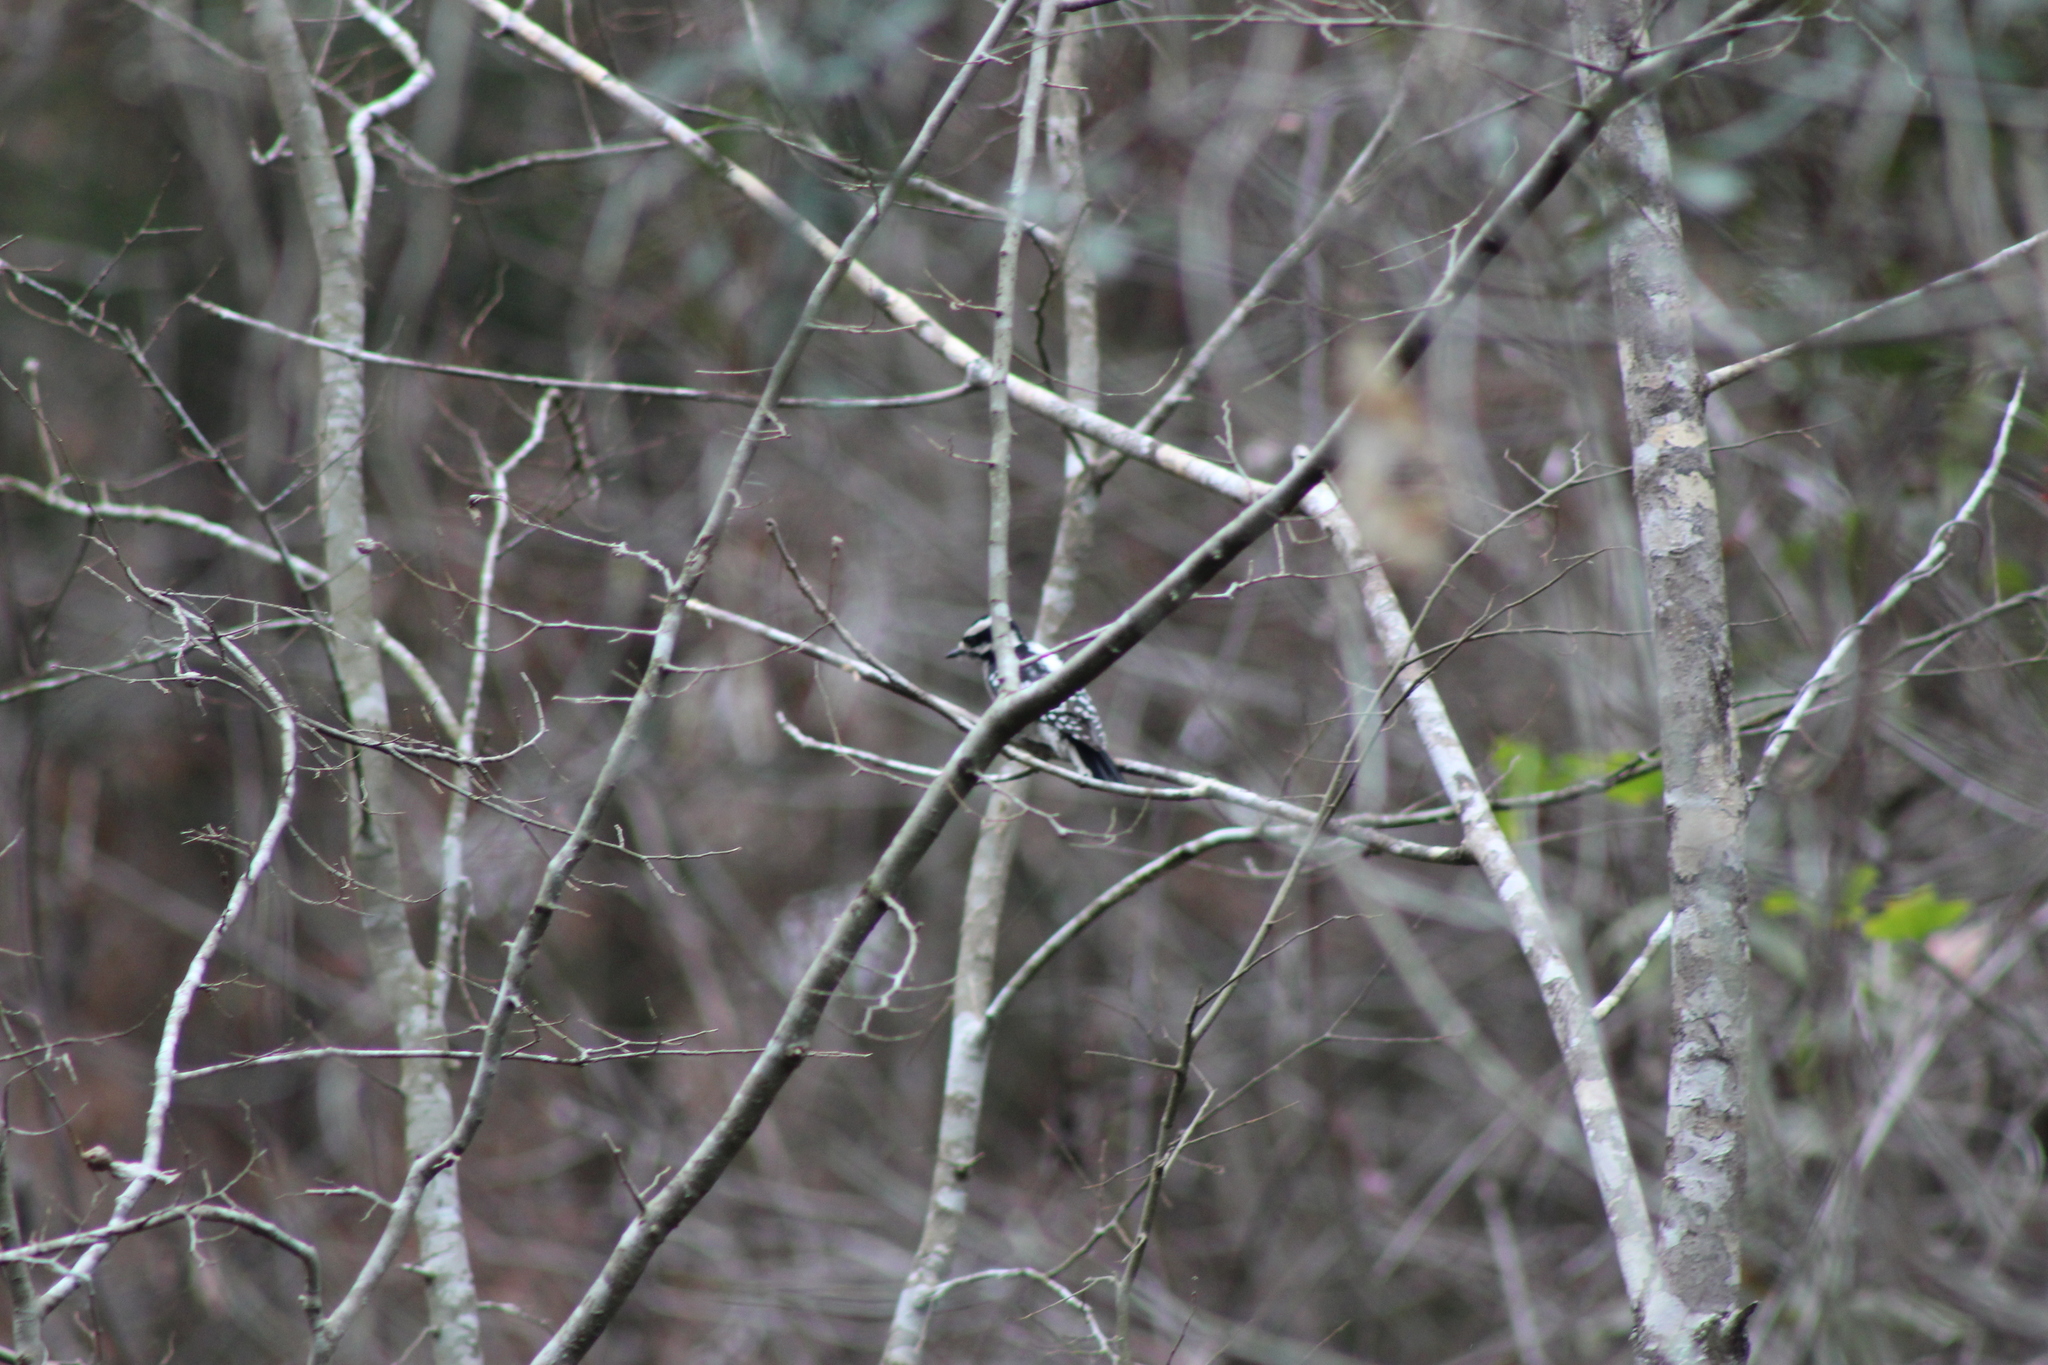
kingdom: Animalia
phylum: Chordata
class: Aves
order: Piciformes
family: Picidae
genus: Dryobates
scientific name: Dryobates pubescens
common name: Downy woodpecker
